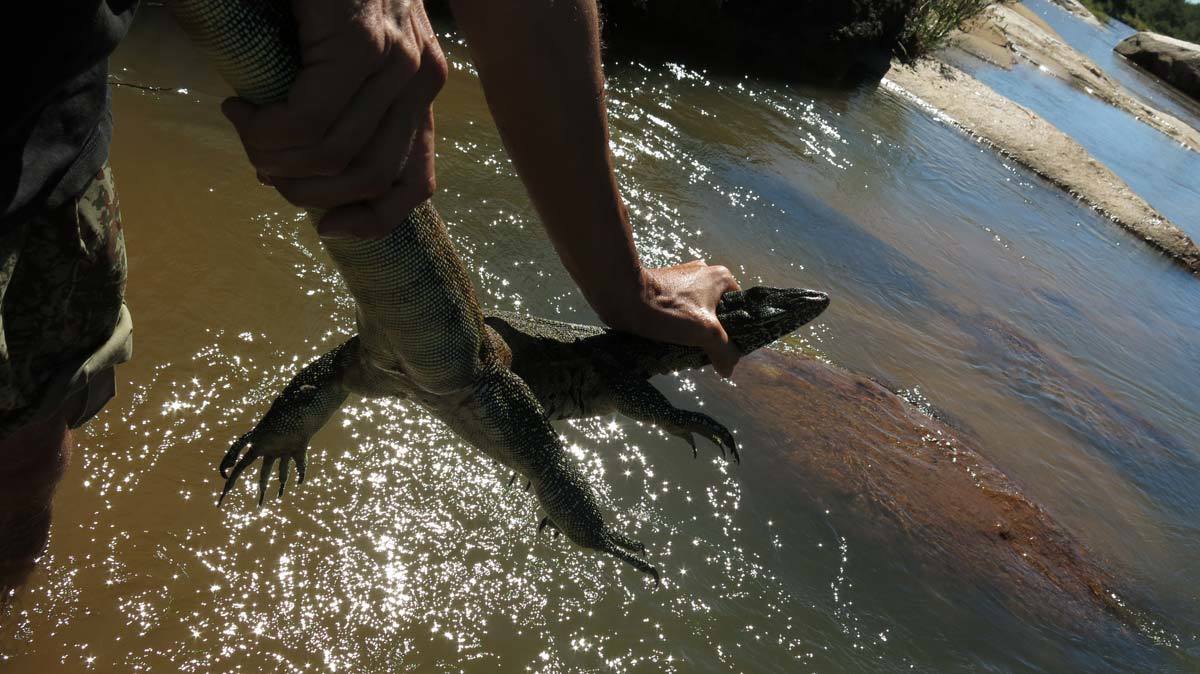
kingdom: Animalia
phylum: Chordata
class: Squamata
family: Varanidae
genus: Varanus
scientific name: Varanus niloticus
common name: Nile monitor
